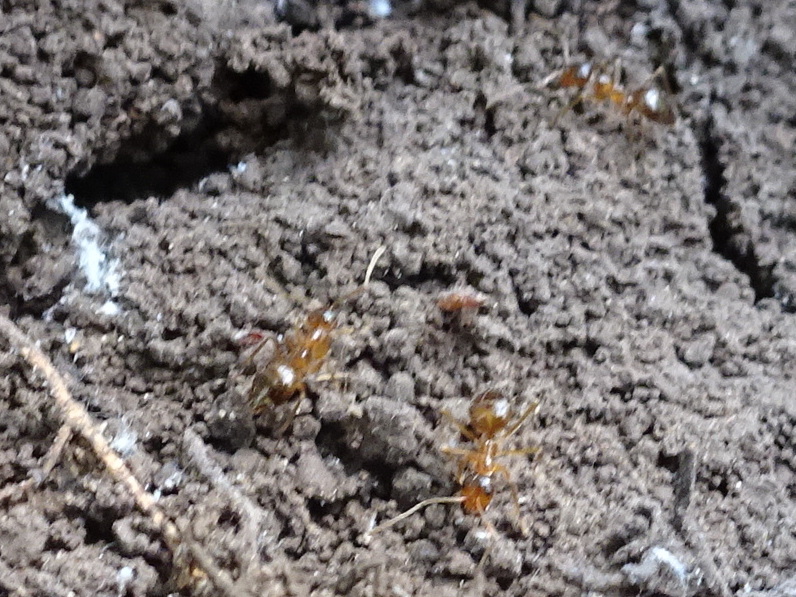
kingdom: Animalia
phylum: Arthropoda
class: Insecta
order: Hymenoptera
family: Formicidae
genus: Prenolepis
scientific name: Prenolepis imparis
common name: Small honey ant
